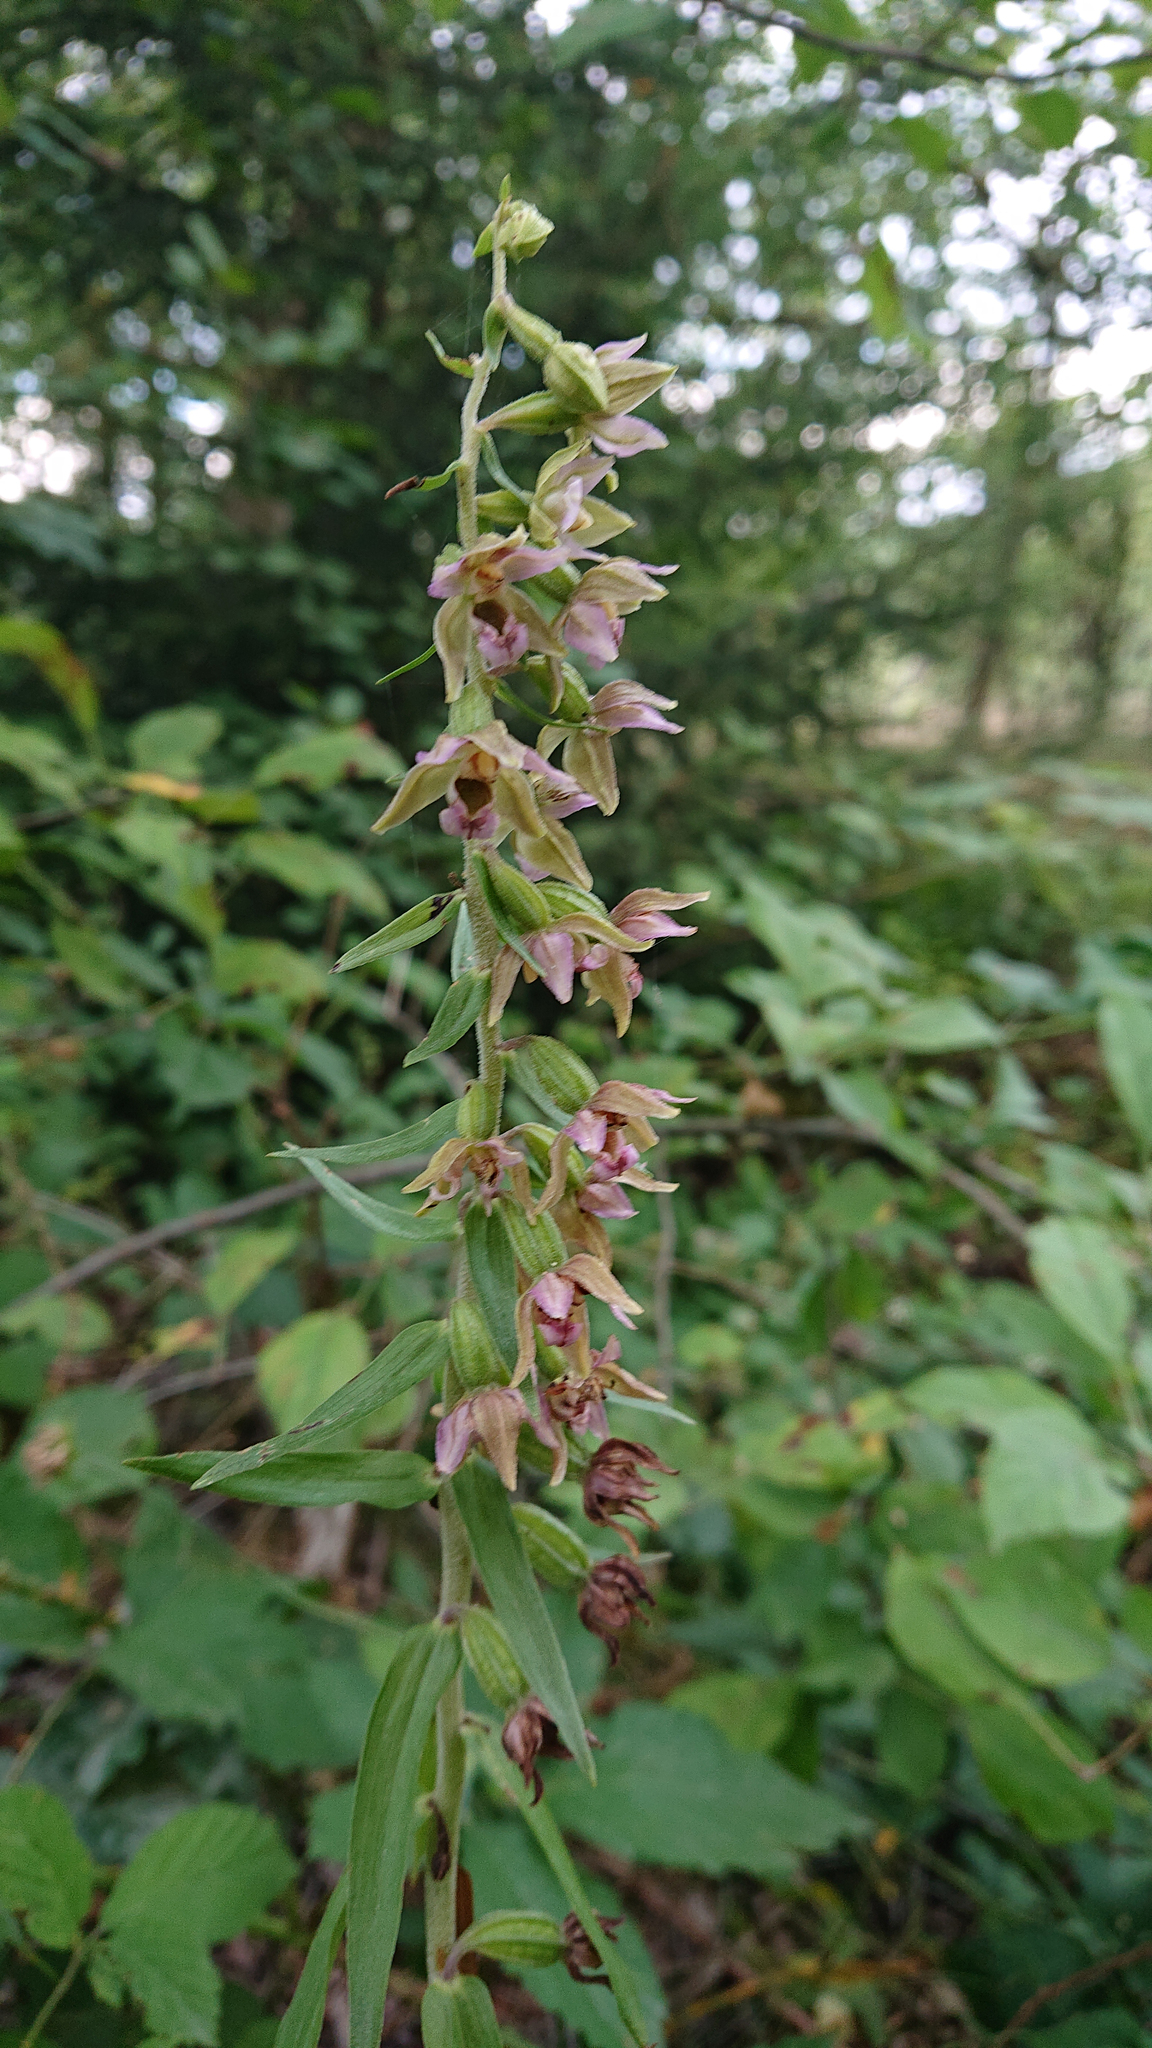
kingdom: Plantae
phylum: Tracheophyta
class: Liliopsida
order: Asparagales
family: Orchidaceae
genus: Epipactis
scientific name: Epipactis helleborine
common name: Broad-leaved helleborine
